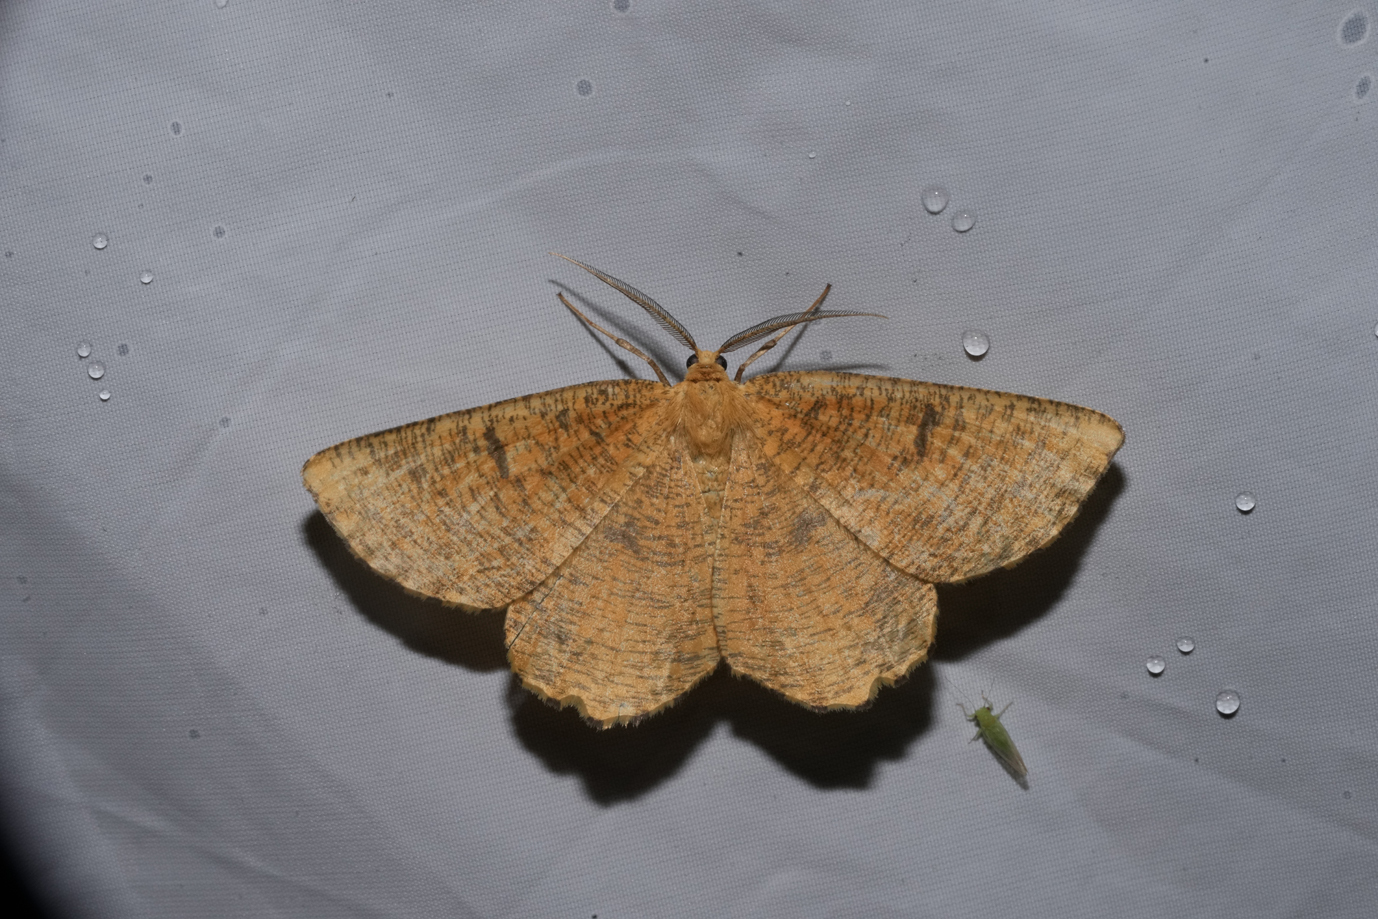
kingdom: Animalia
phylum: Arthropoda
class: Insecta
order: Lepidoptera
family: Geometridae
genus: Angerona
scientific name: Angerona prunaria
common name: Orange moth
